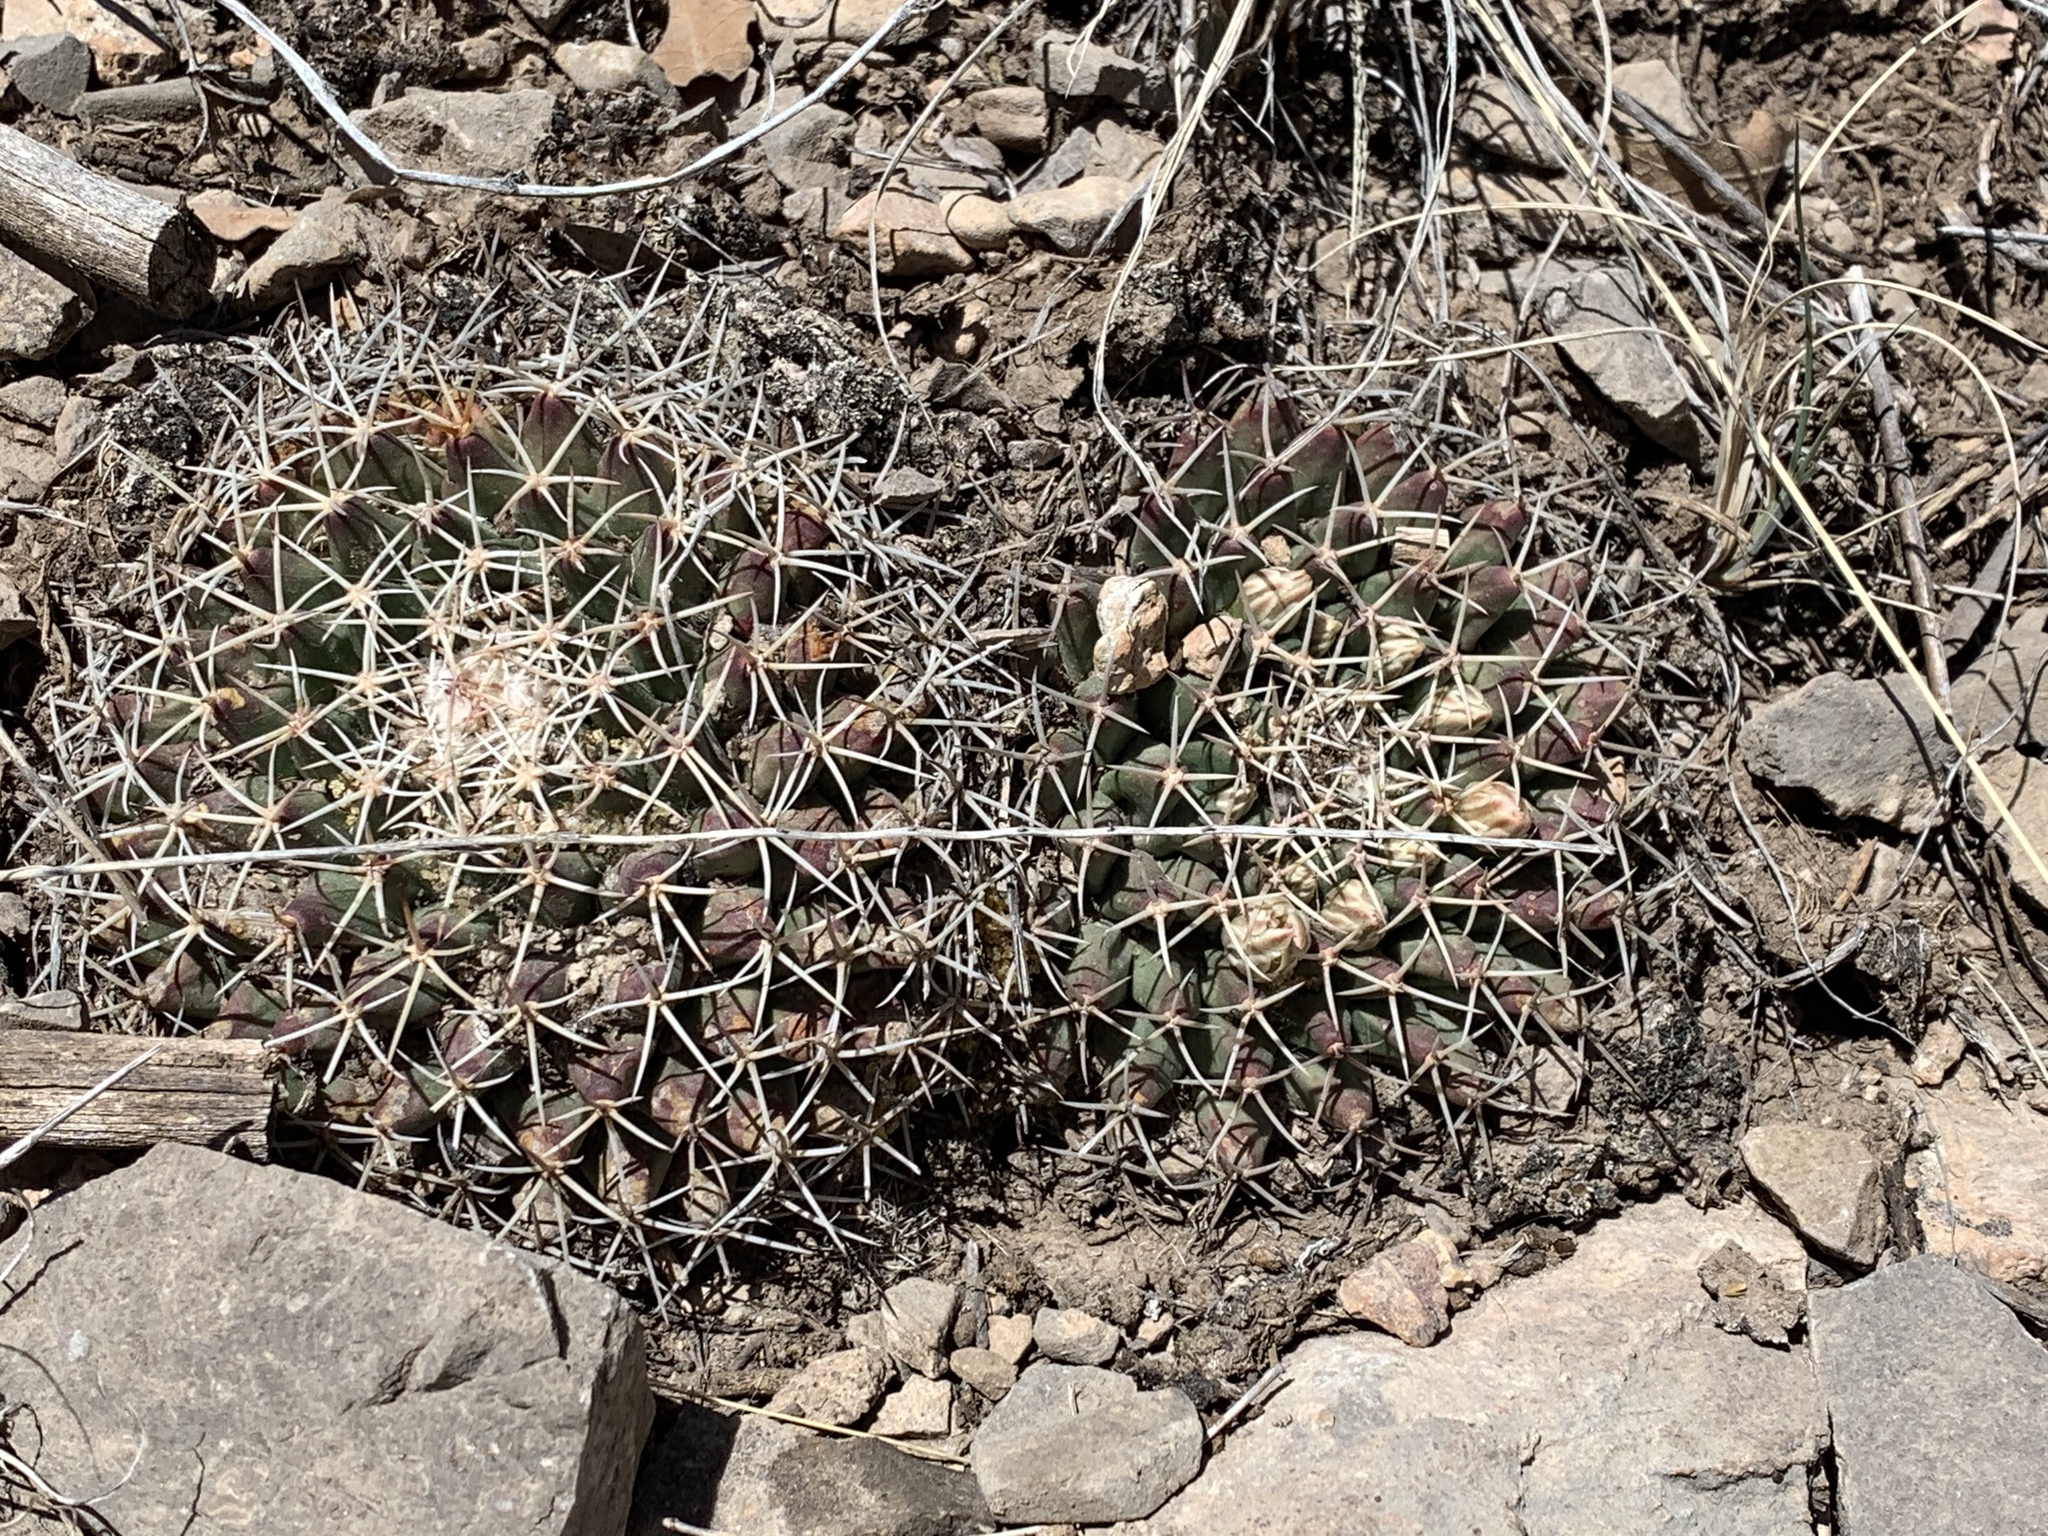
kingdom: Plantae
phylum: Tracheophyta
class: Magnoliopsida
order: Caryophyllales
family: Cactaceae
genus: Mammillaria
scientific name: Mammillaria heyderi
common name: Little nipple cactus
